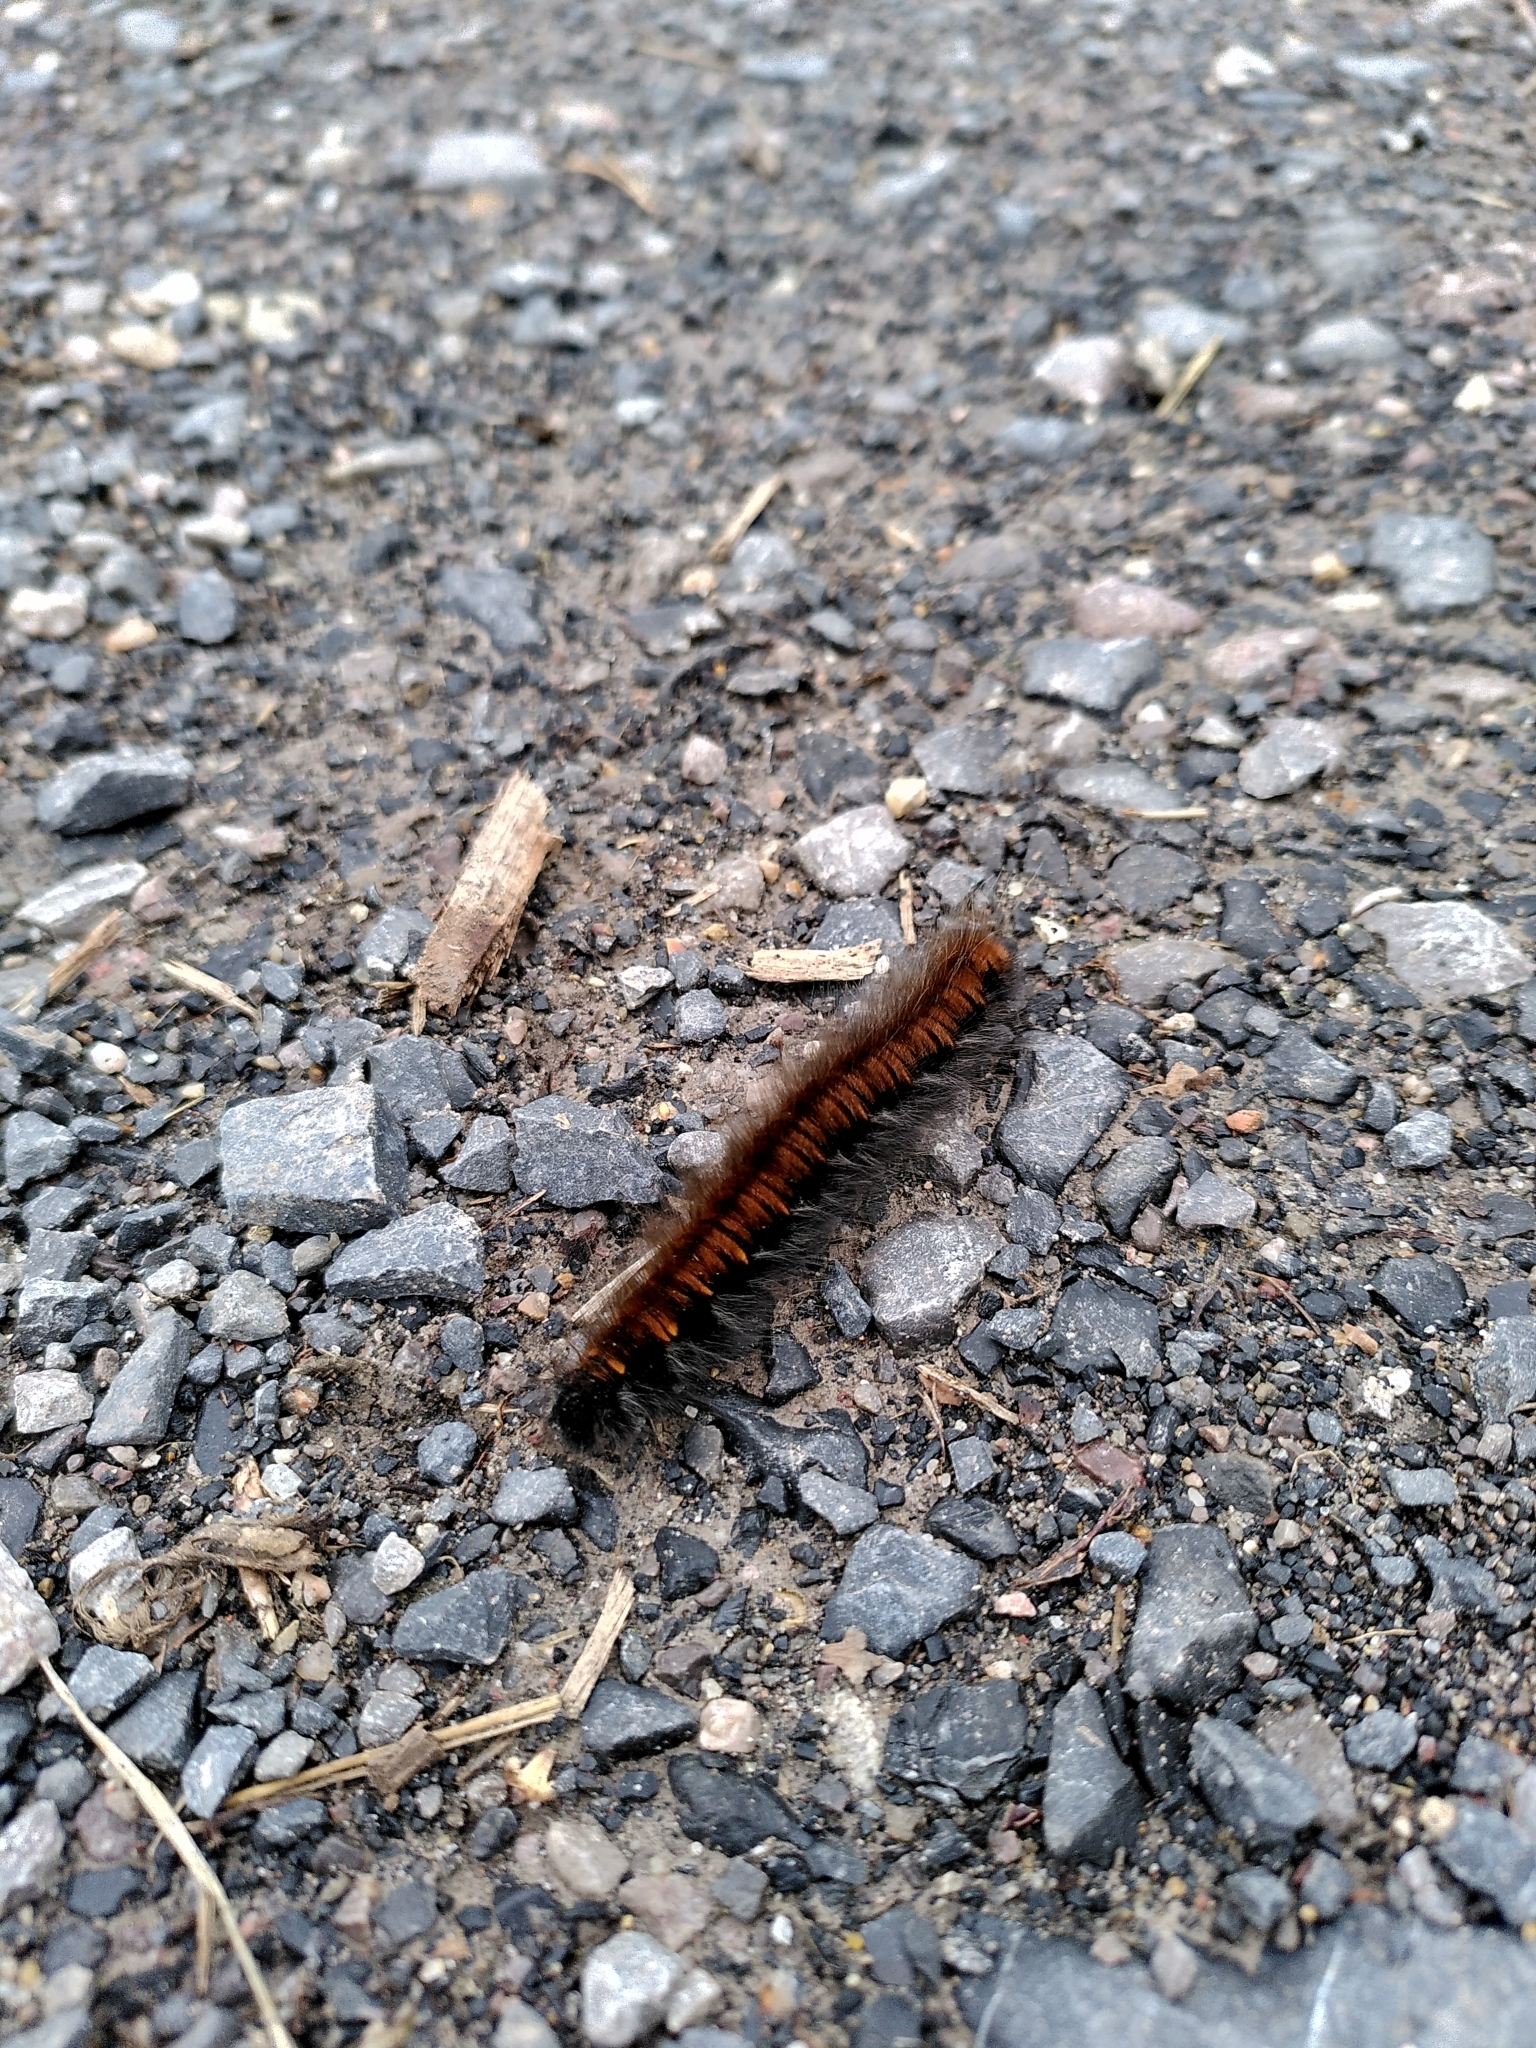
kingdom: Animalia
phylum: Arthropoda
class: Insecta
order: Lepidoptera
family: Lasiocampidae
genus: Macrothylacia
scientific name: Macrothylacia rubi
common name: Fox moth
